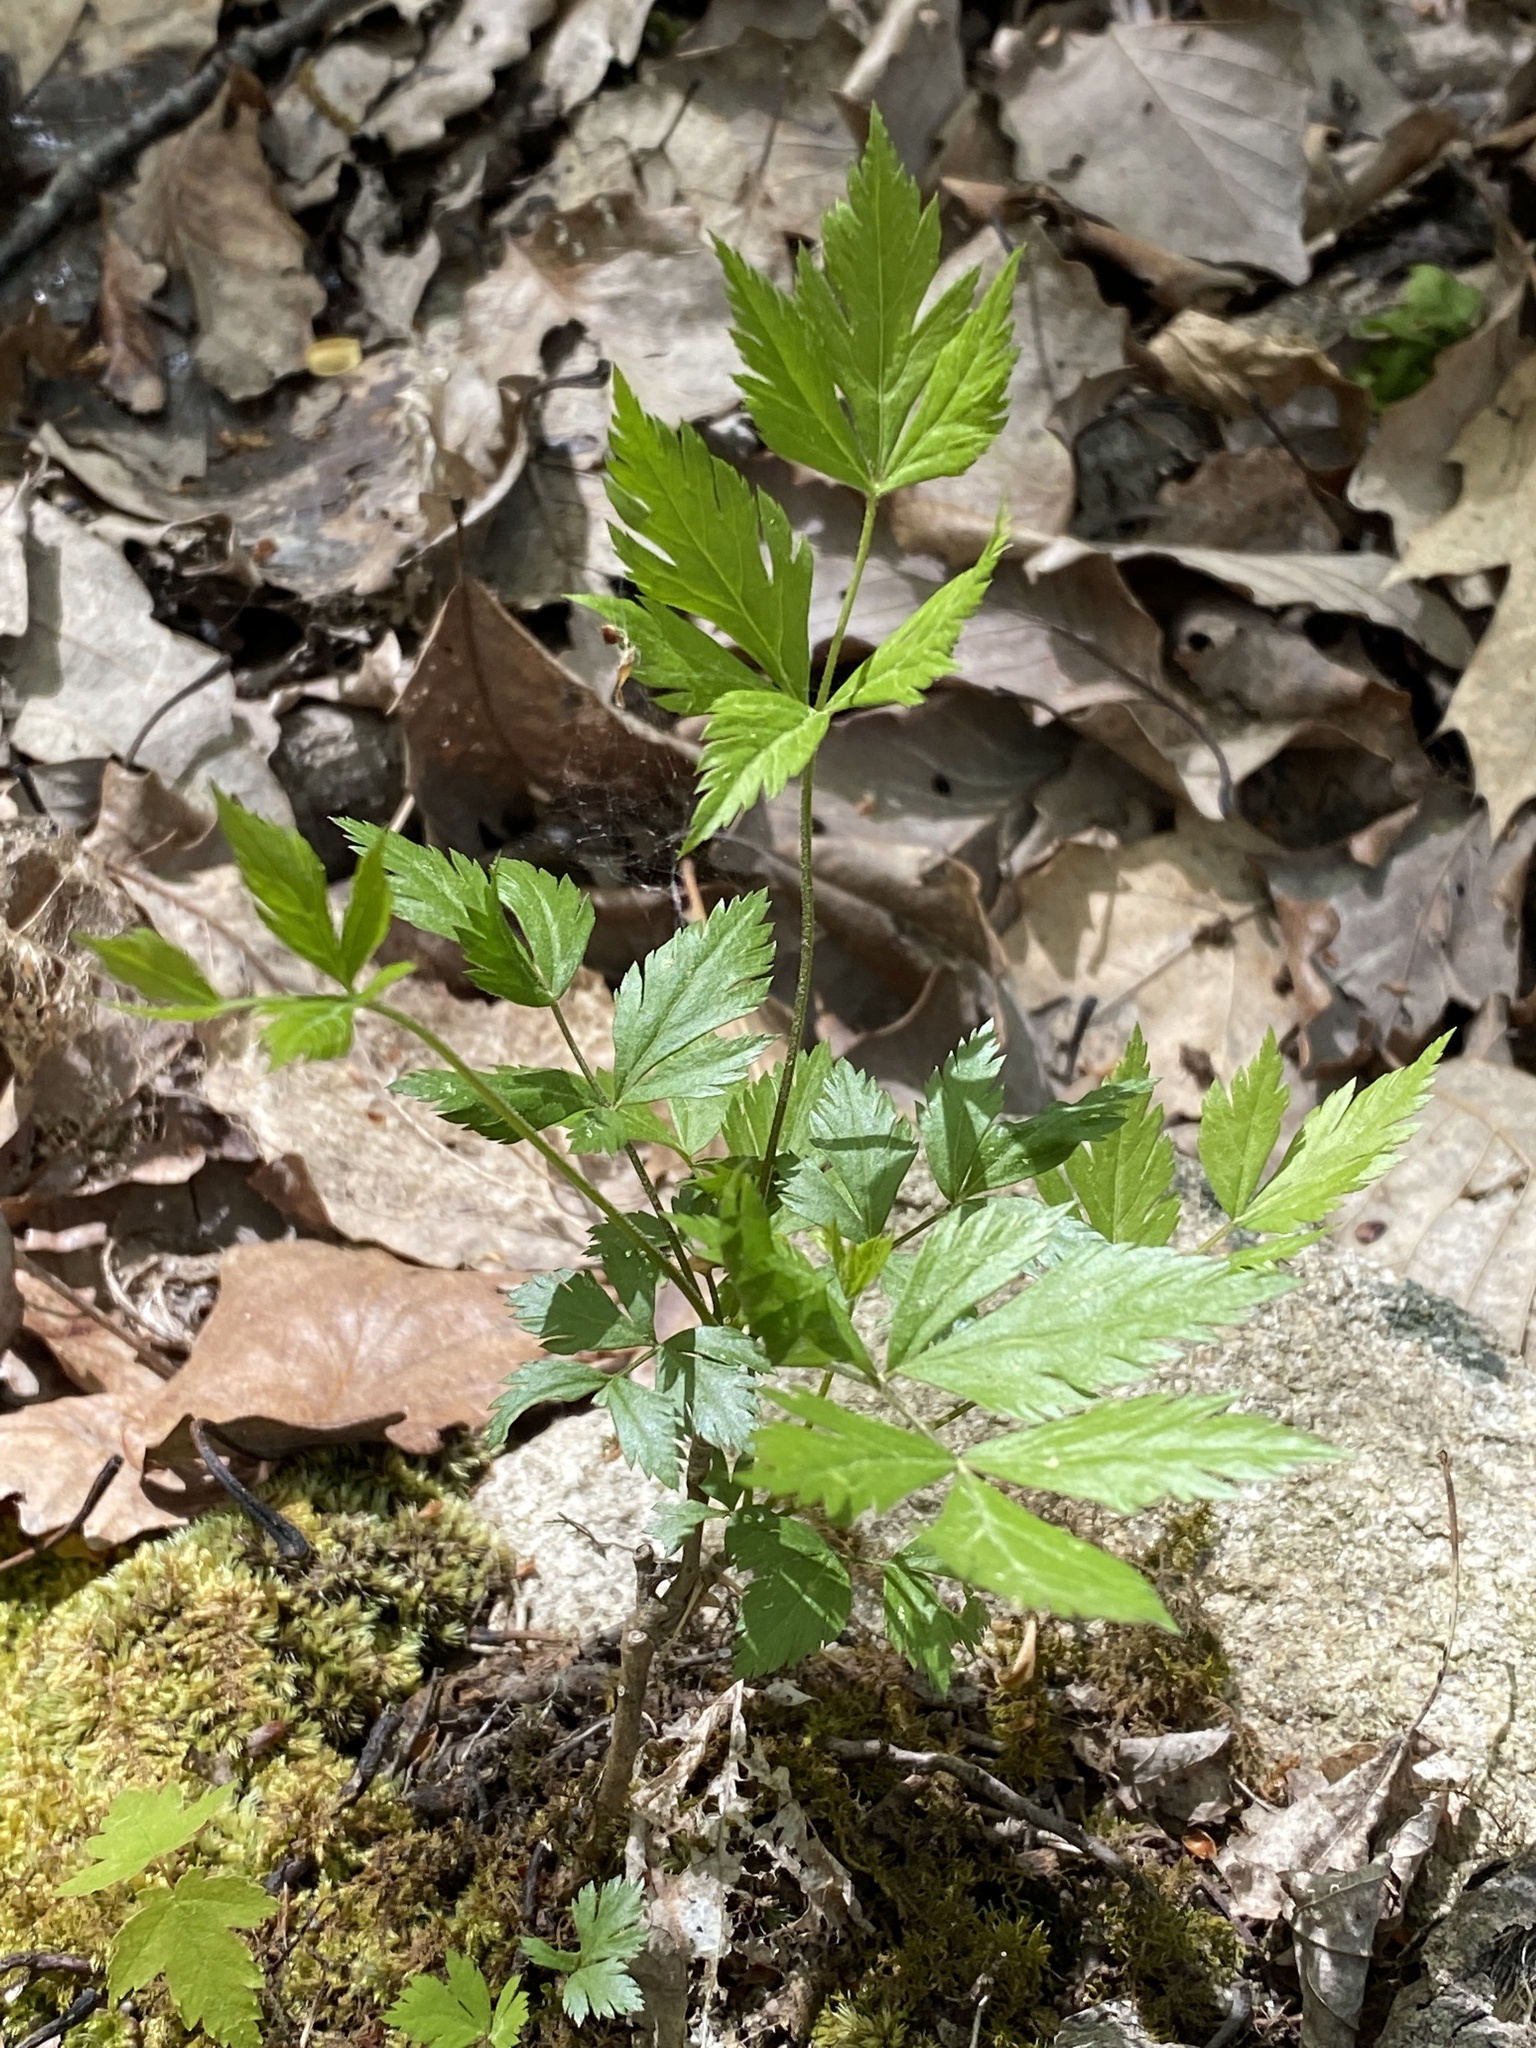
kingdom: Plantae
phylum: Tracheophyta
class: Magnoliopsida
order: Ranunculales
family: Ranunculaceae
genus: Xanthorhiza
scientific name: Xanthorhiza simplicissima
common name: Yellowroot
